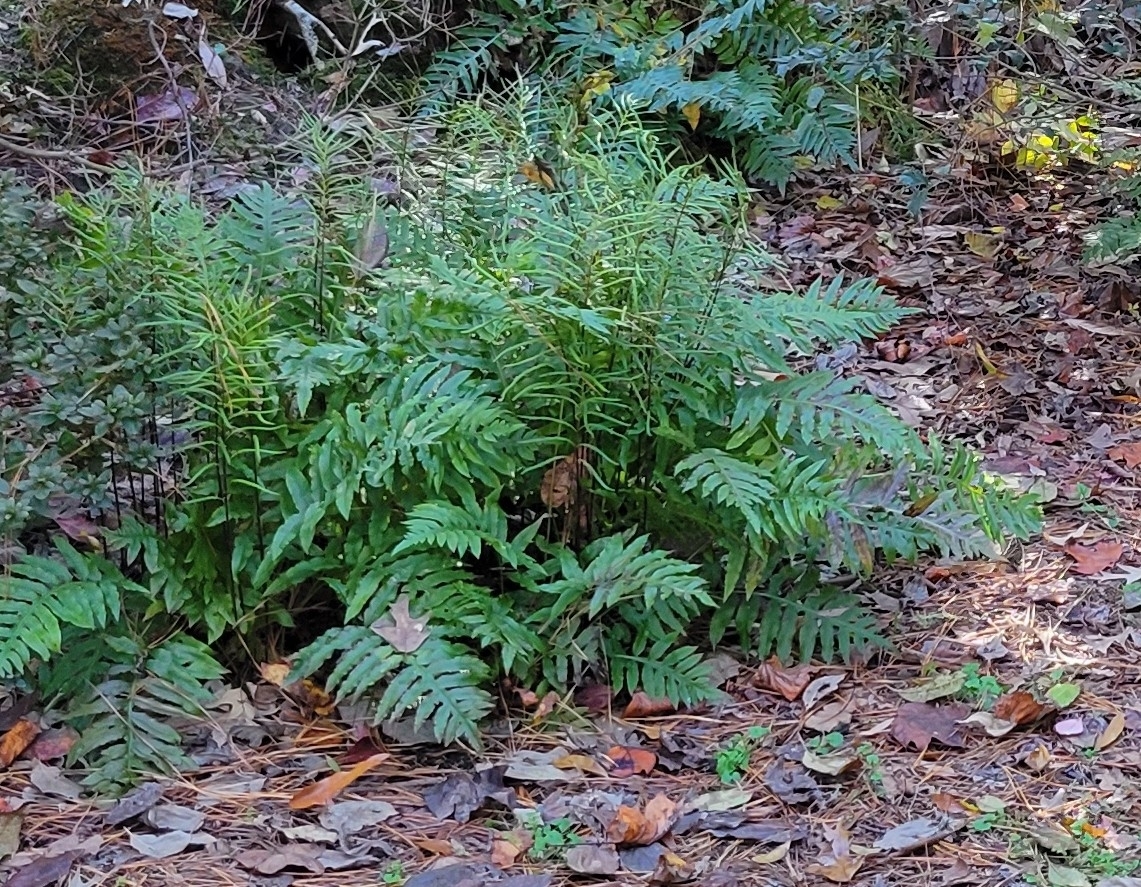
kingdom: Plantae
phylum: Tracheophyta
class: Polypodiopsida
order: Polypodiales
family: Blechnaceae
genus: Lorinseria
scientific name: Lorinseria areolata
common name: Dwarf chain fern
